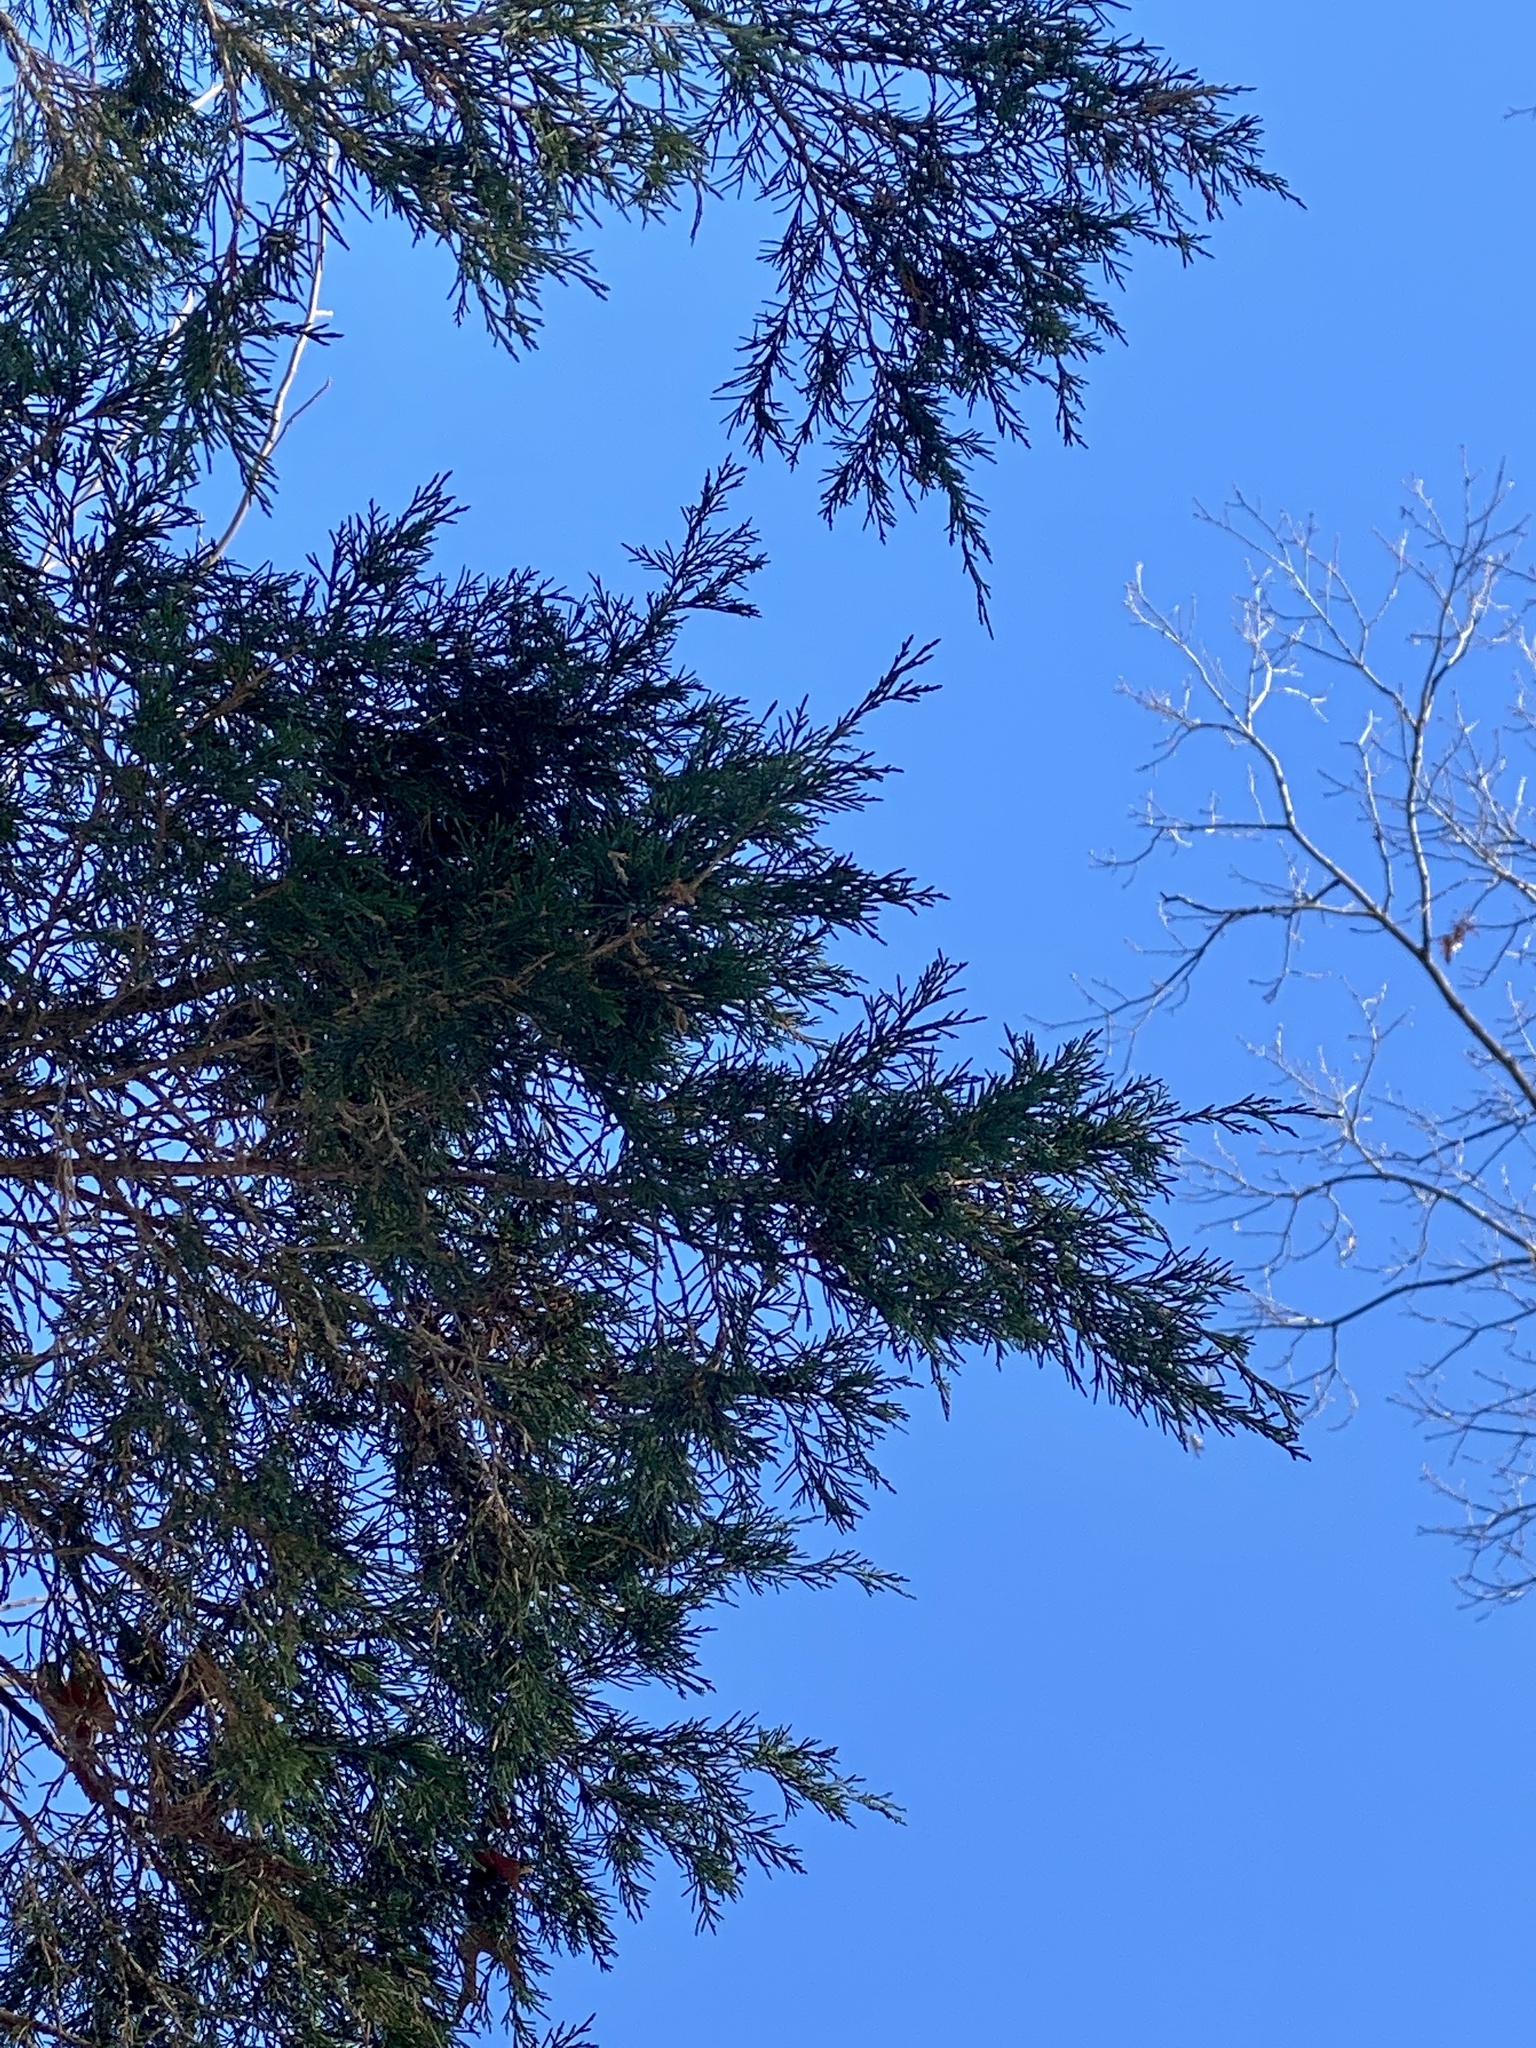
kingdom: Plantae
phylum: Tracheophyta
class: Pinopsida
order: Pinales
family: Cupressaceae
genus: Juniperus
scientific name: Juniperus virginiana
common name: Red juniper
